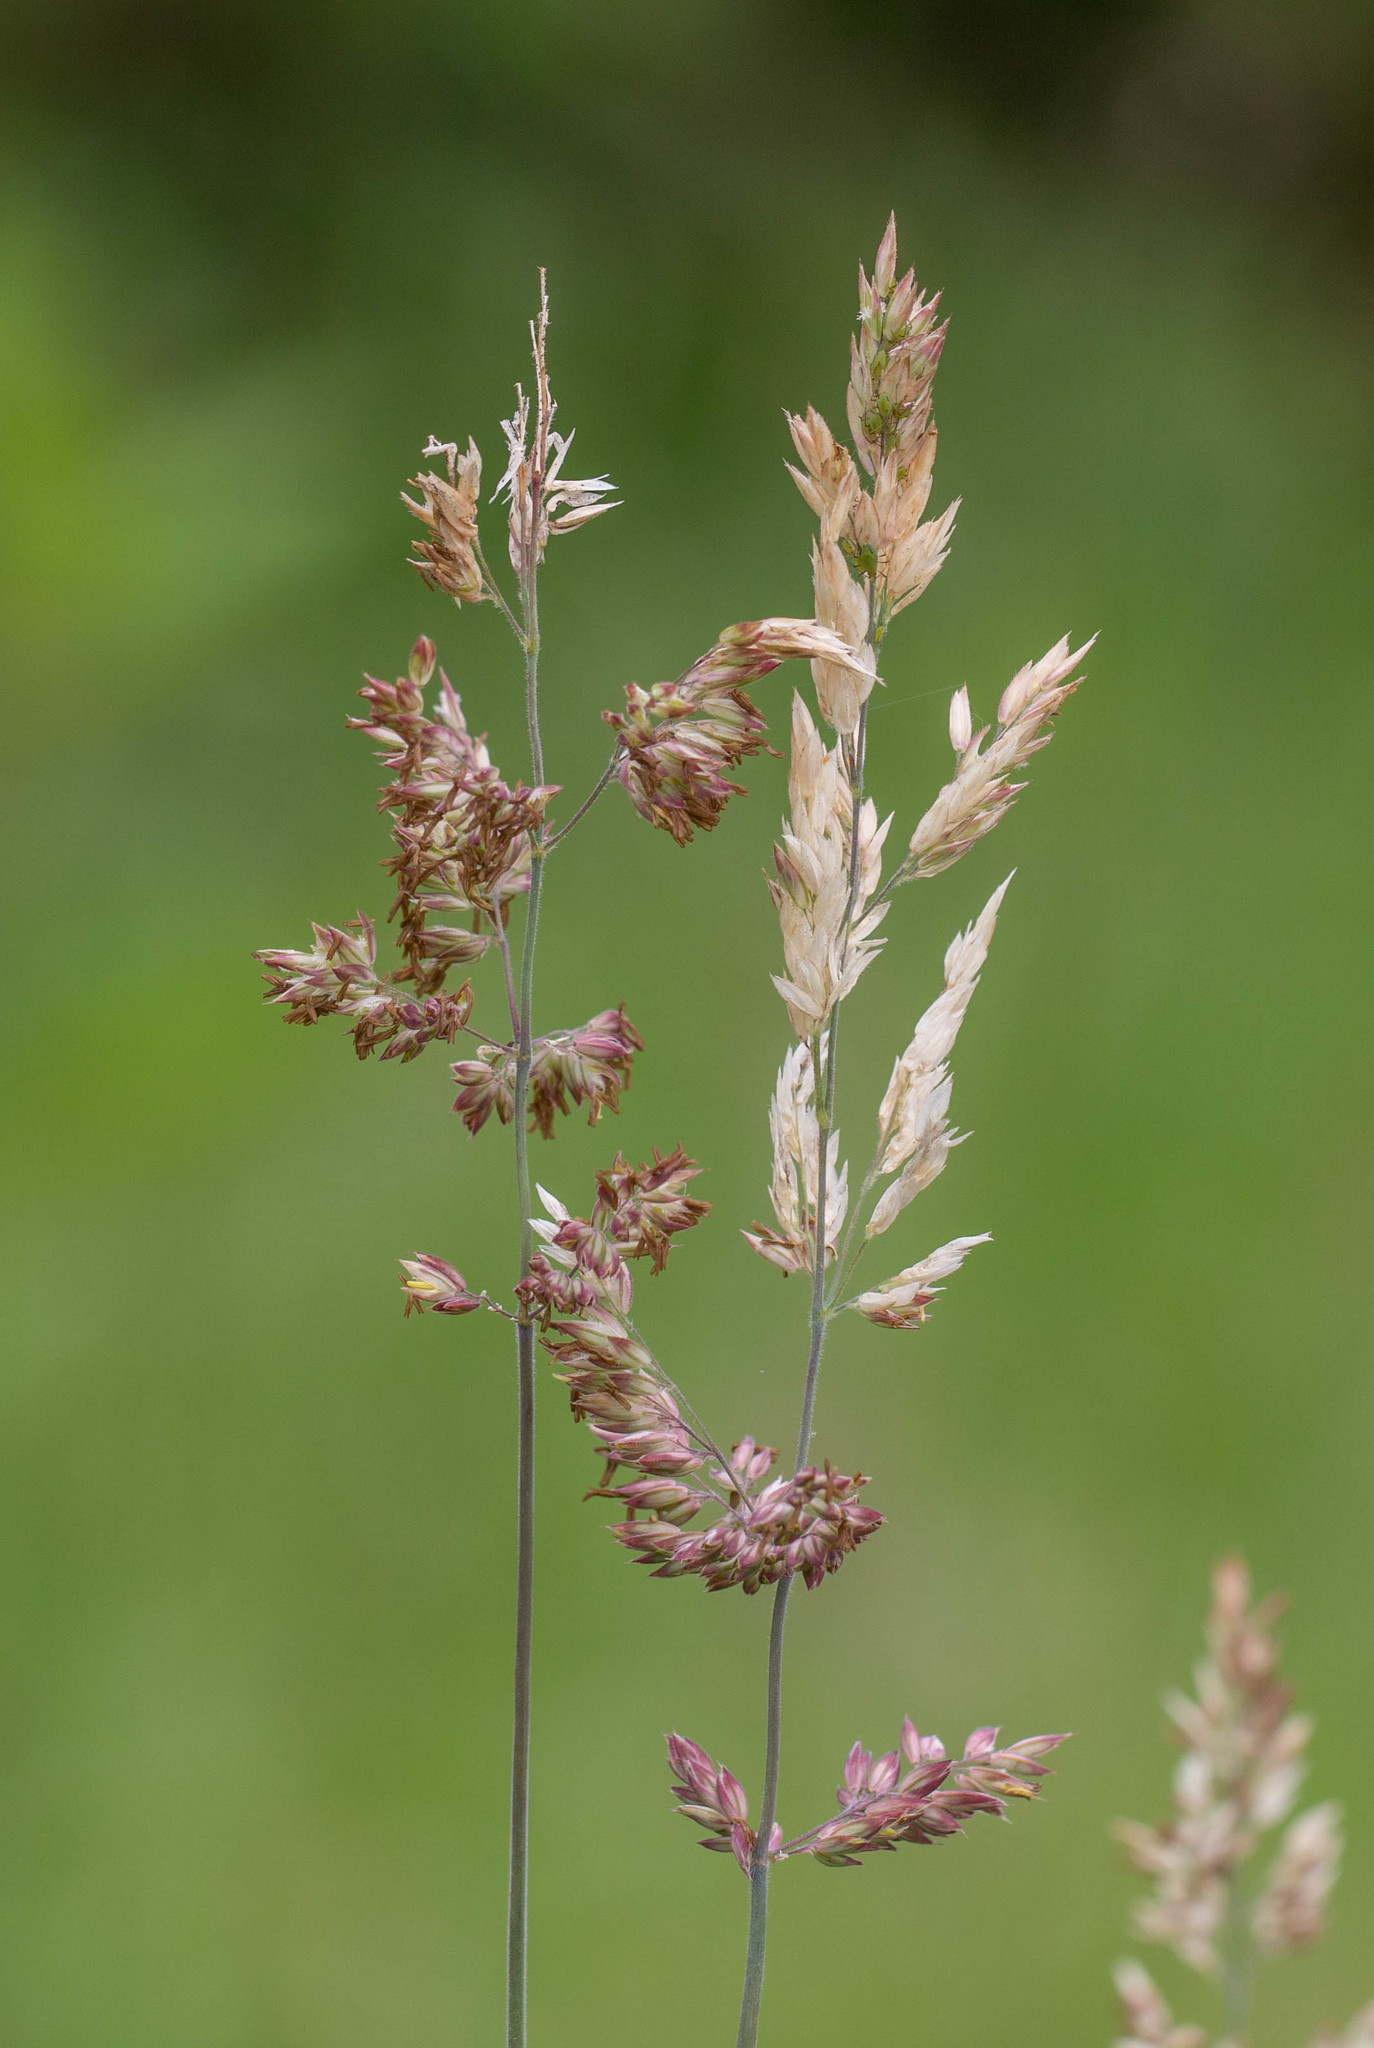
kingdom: Plantae
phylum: Tracheophyta
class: Liliopsida
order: Poales
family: Poaceae
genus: Holcus
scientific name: Holcus lanatus
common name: Yorkshire-fog
